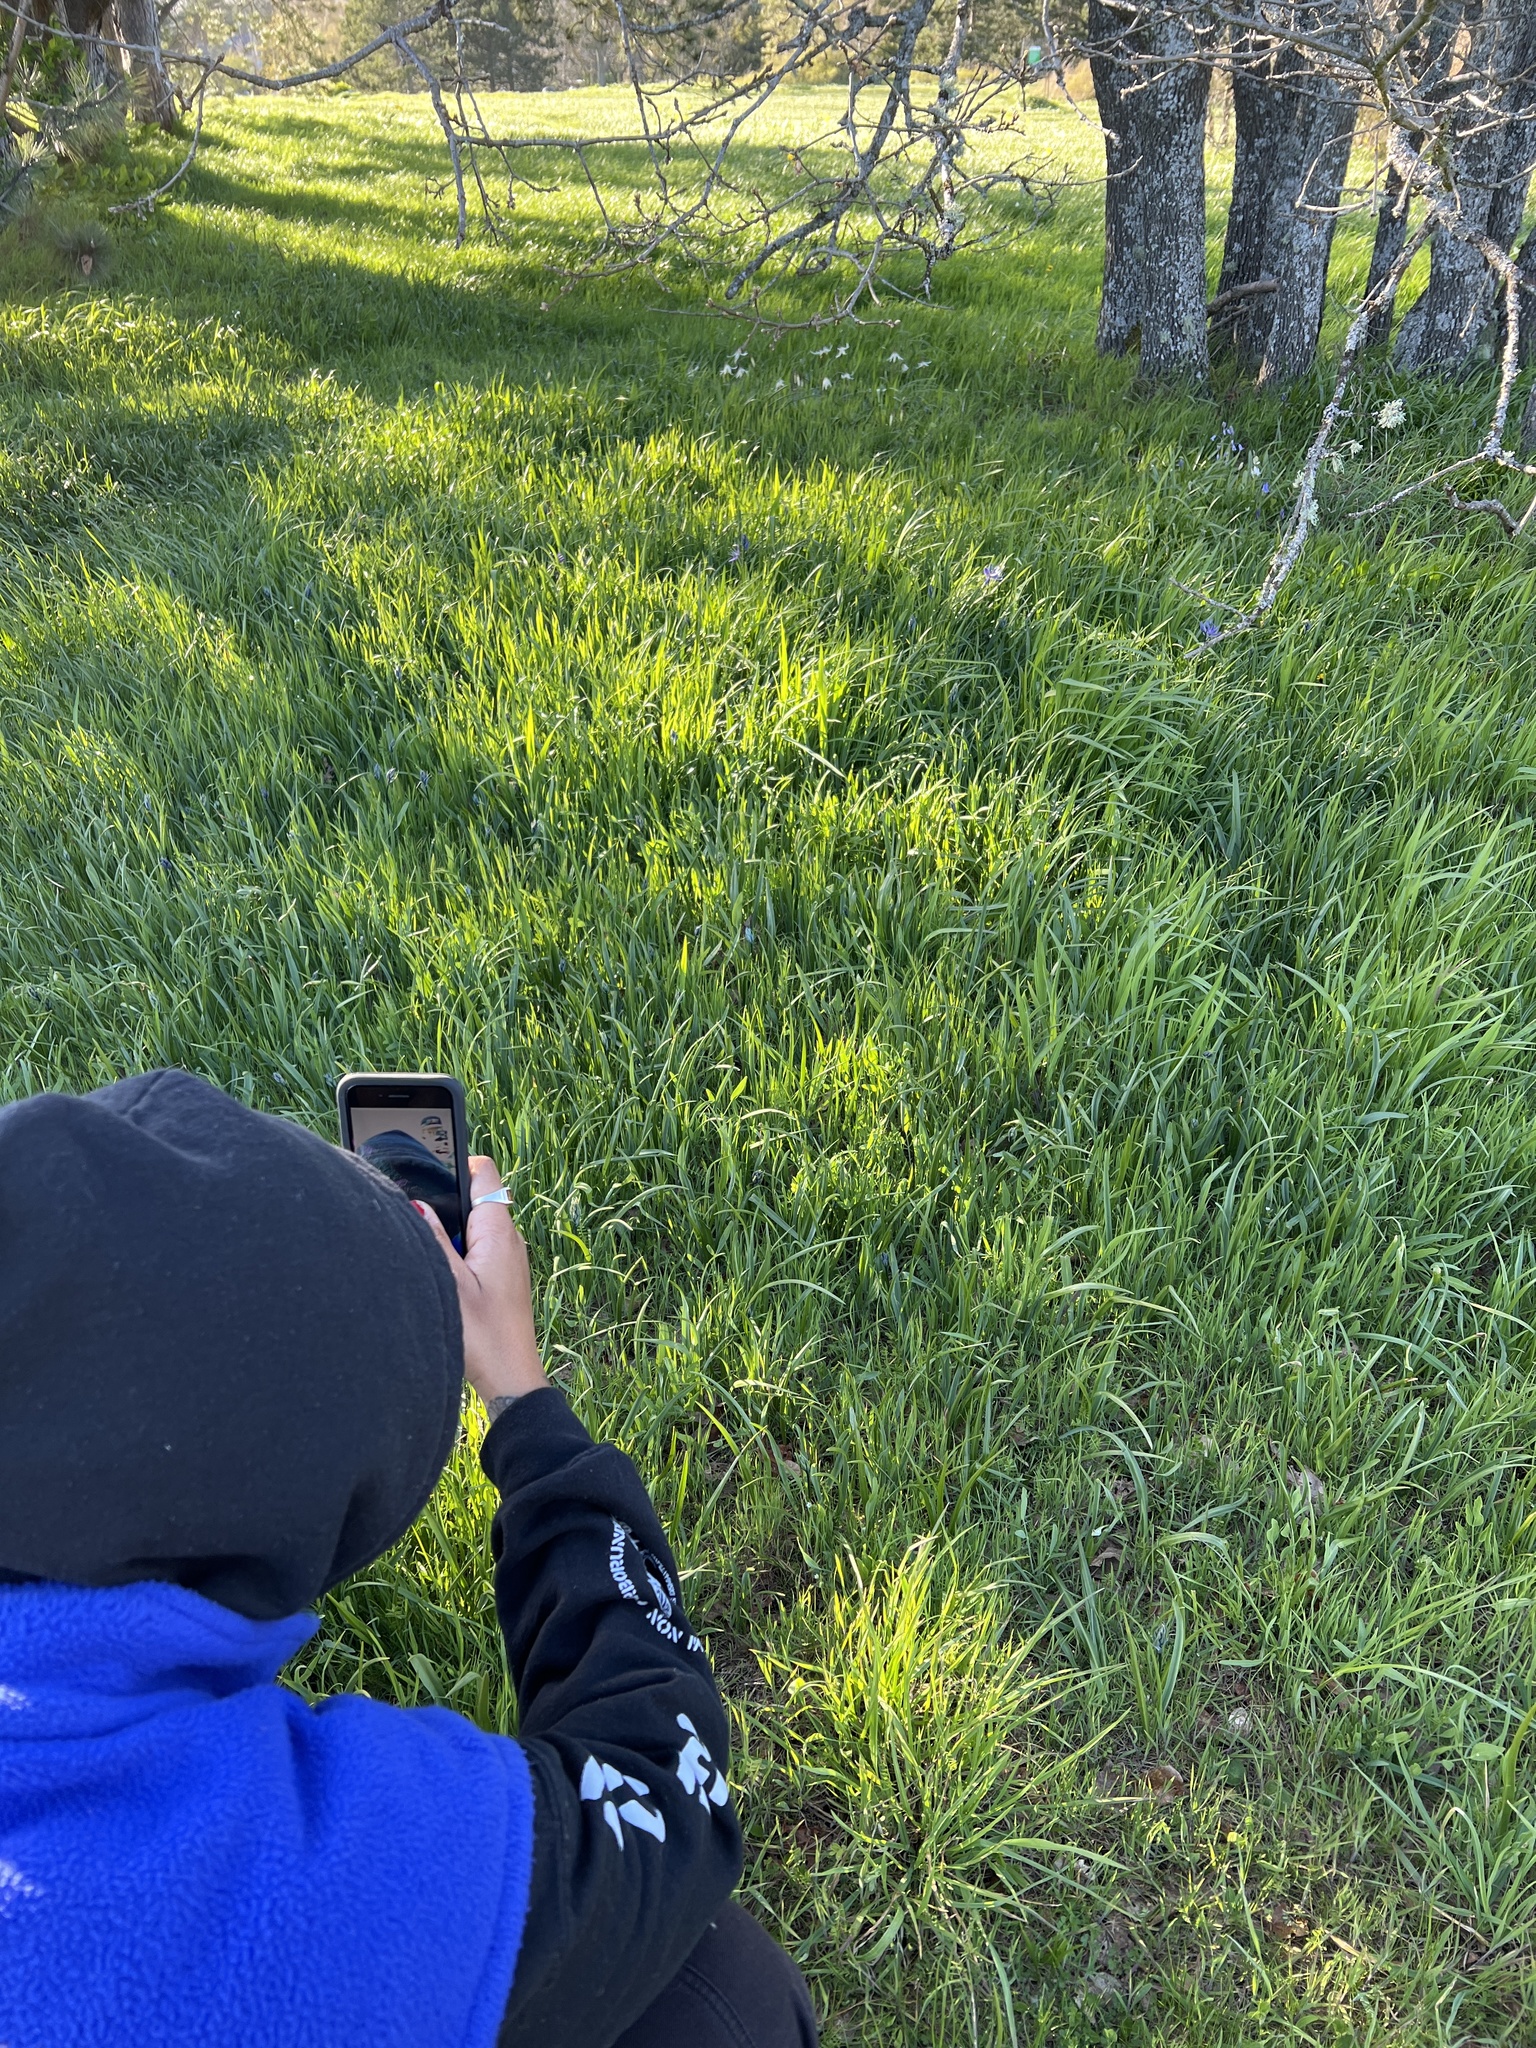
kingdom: Plantae
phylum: Tracheophyta
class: Liliopsida
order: Asparagales
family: Asparagaceae
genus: Camassia
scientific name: Camassia quamash
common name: Common camas
